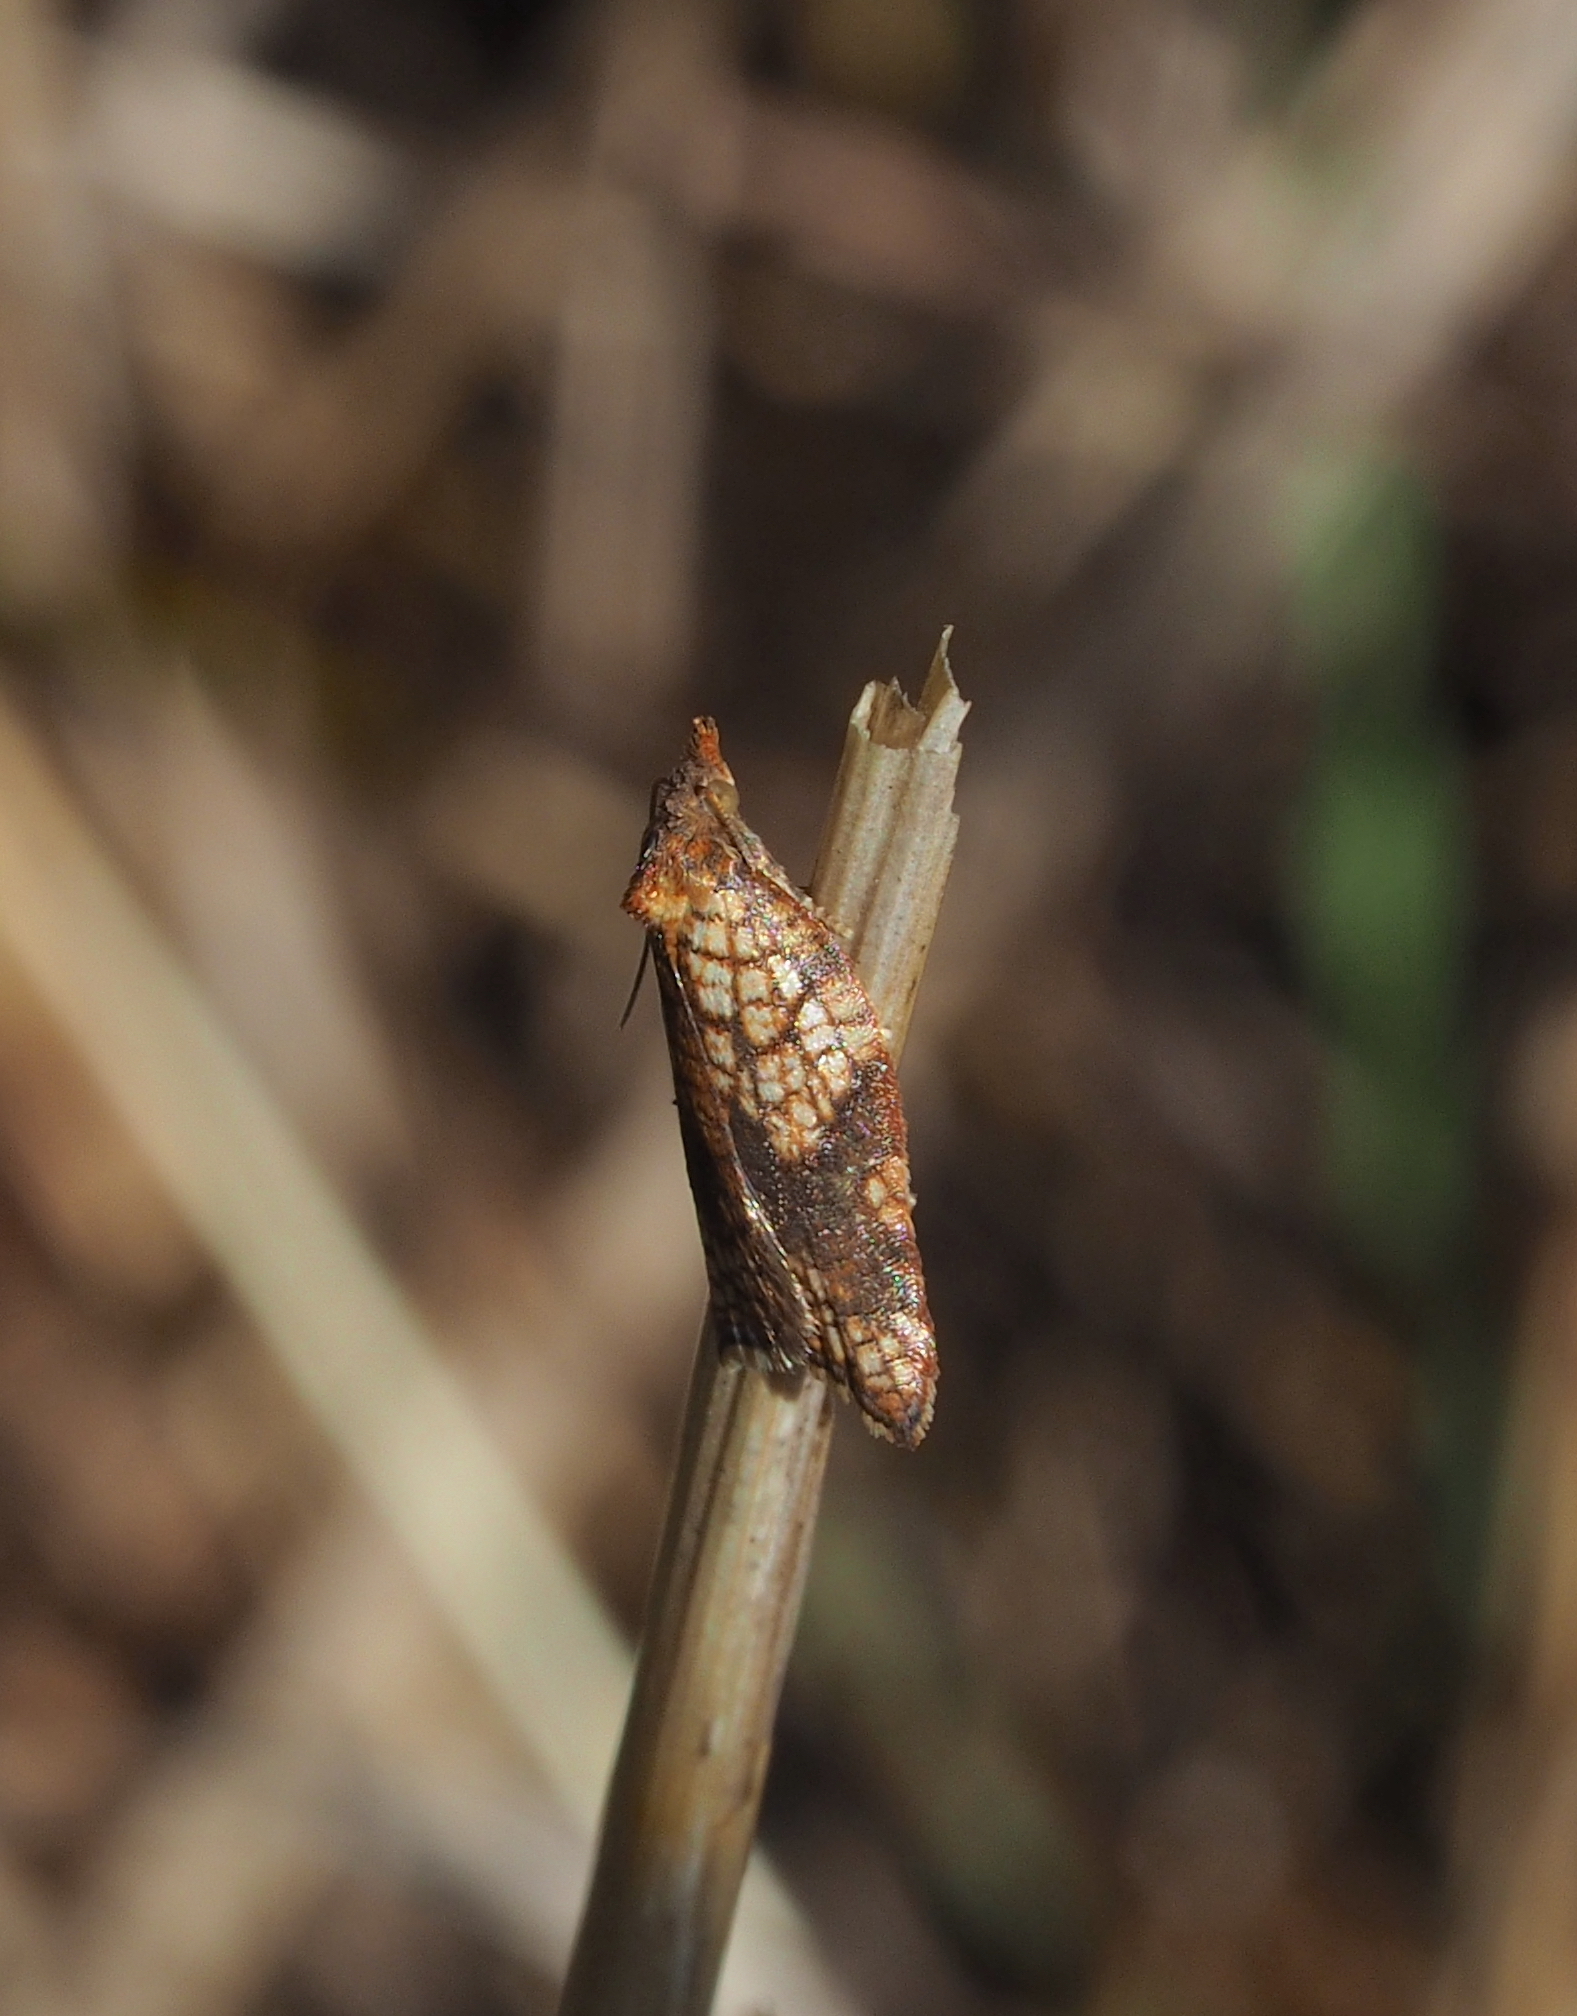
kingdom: Animalia
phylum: Arthropoda
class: Insecta
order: Lepidoptera
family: Tortricidae
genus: Acleris
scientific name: Acleris rhombana
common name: Tortricid moth
